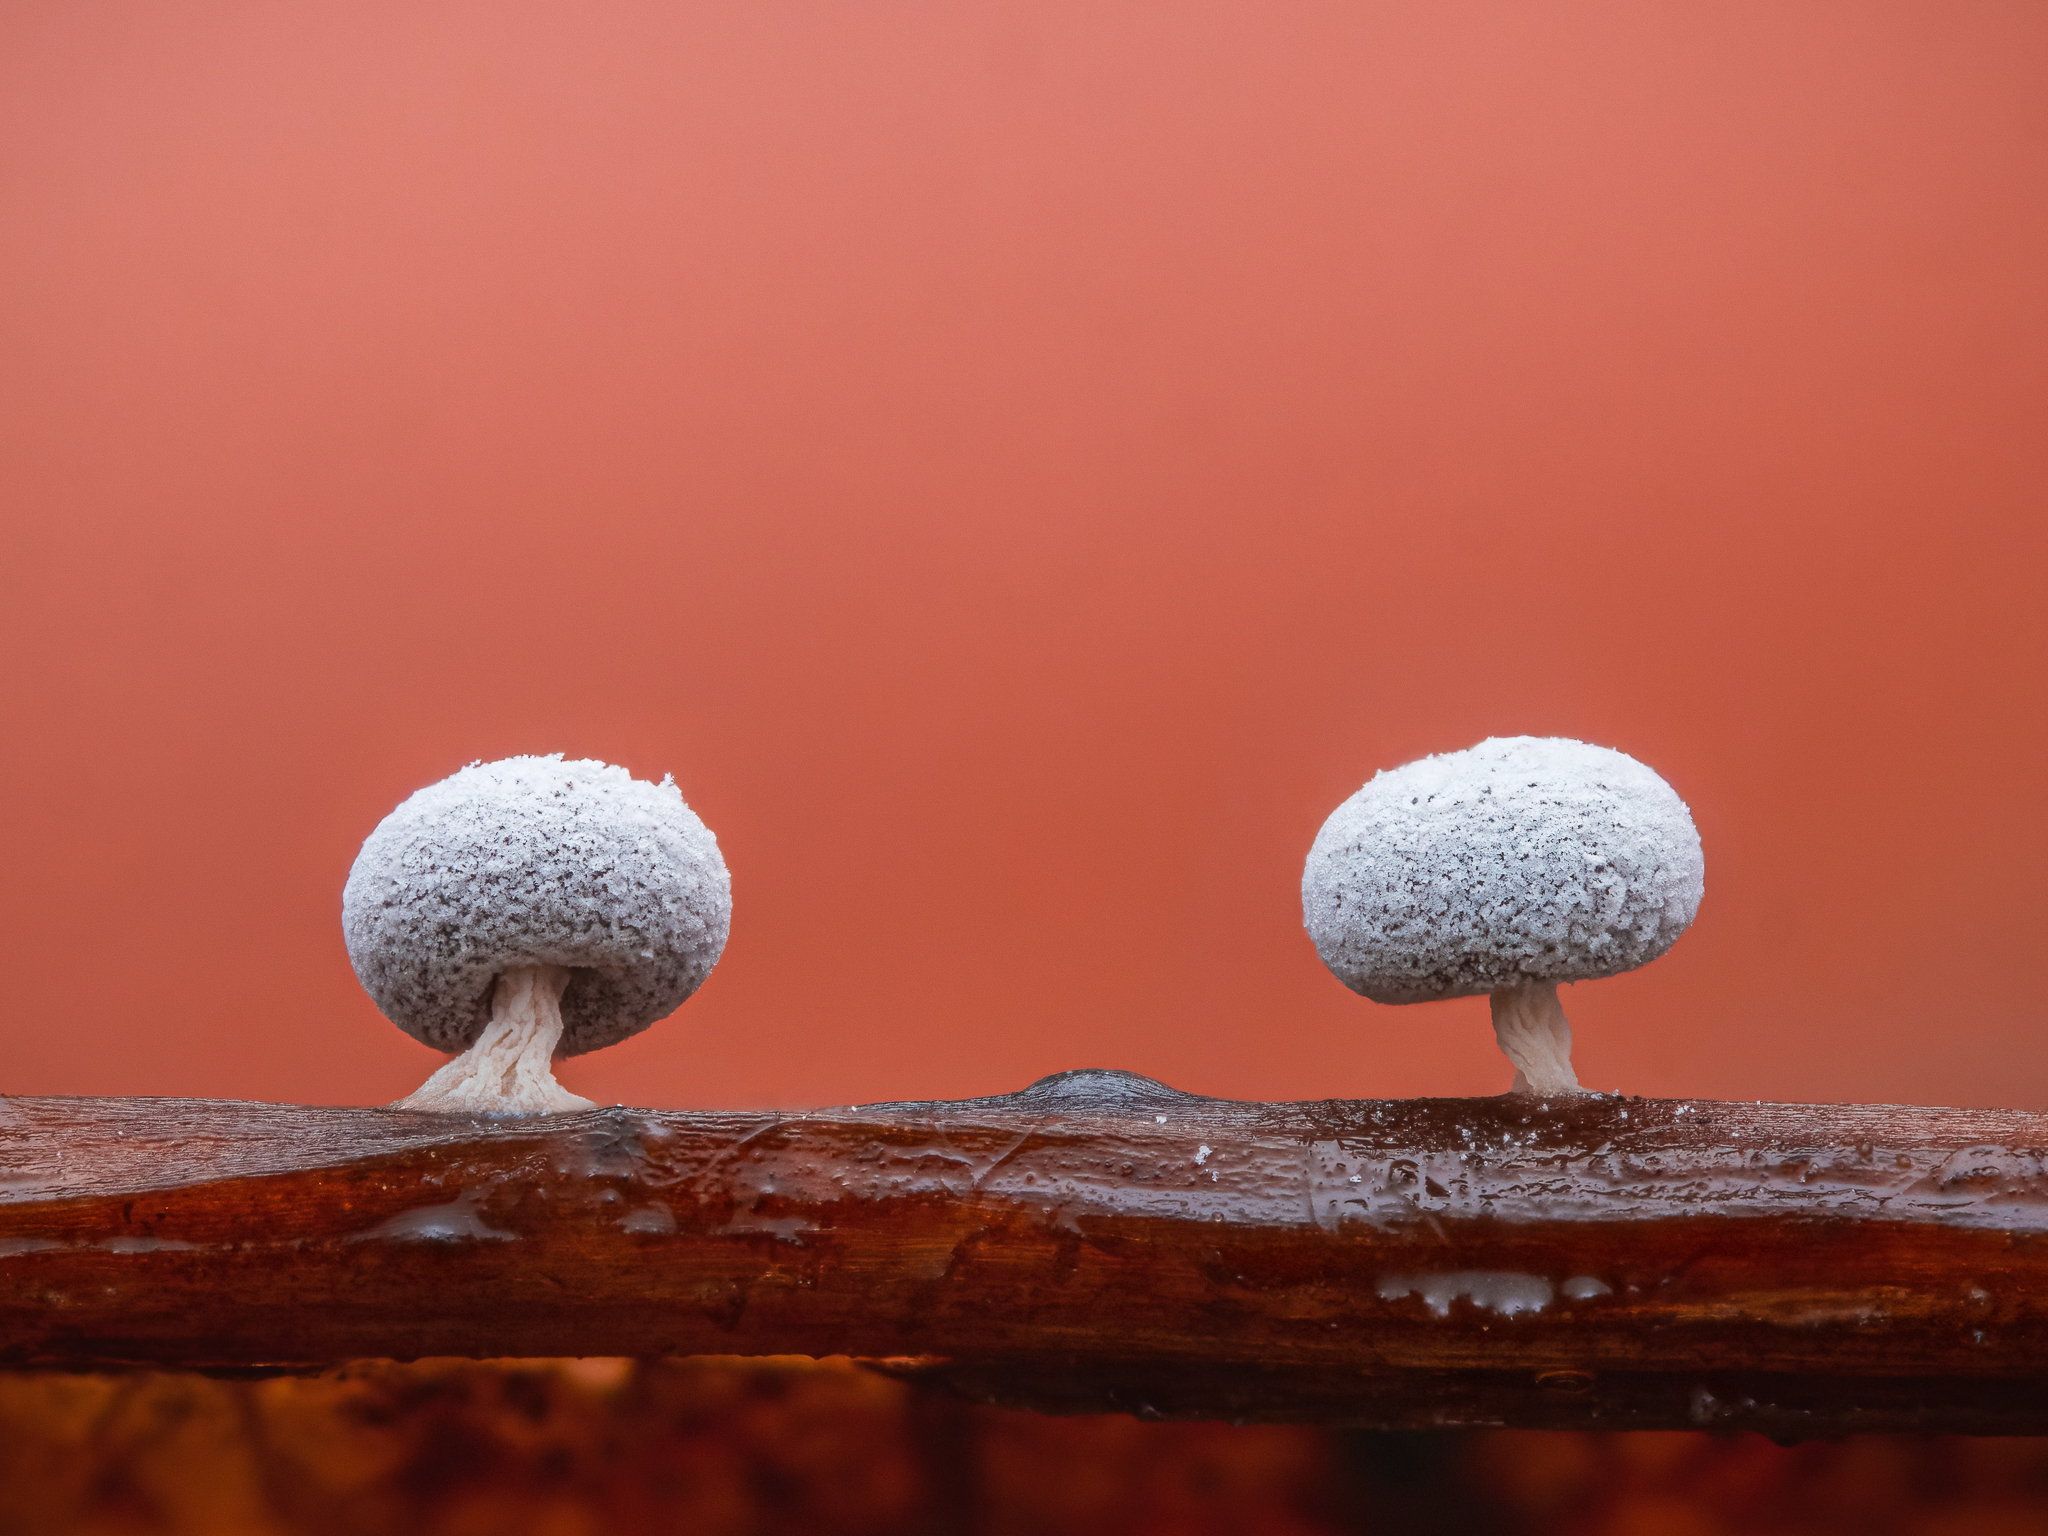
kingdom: Protozoa
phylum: Mycetozoa
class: Myxomycetes
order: Physarales
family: Didymiaceae
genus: Didymium
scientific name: Didymium squamulosum
